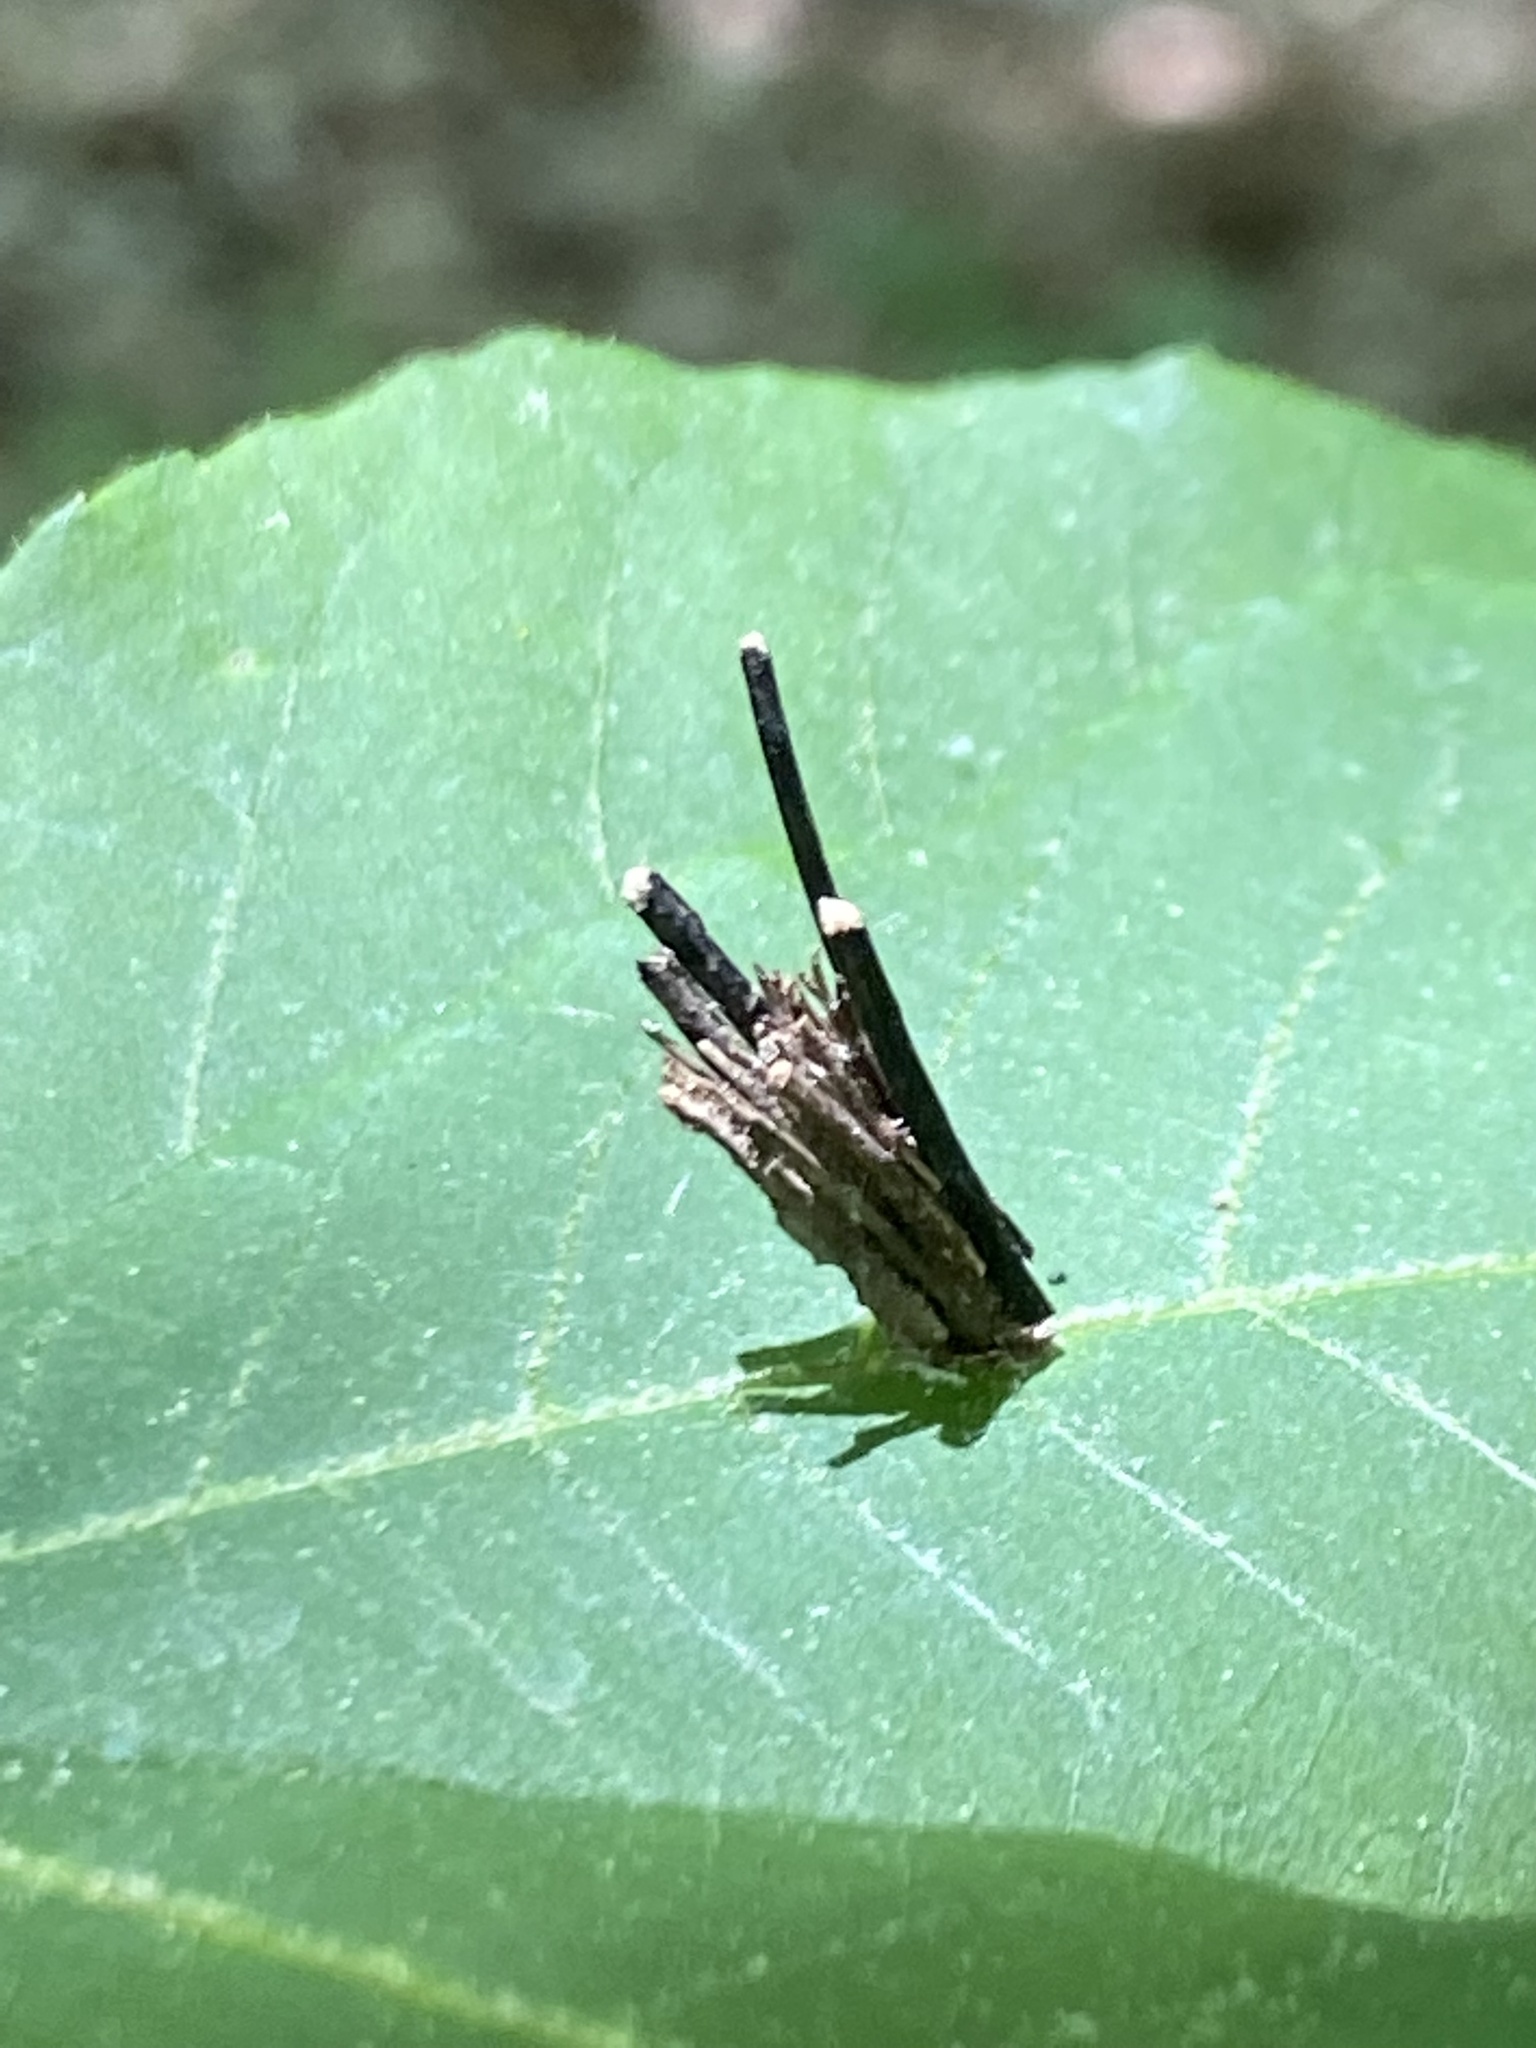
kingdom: Animalia
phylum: Arthropoda
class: Insecta
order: Lepidoptera
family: Psychidae
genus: Psyche
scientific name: Psyche casta
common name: Common sweep
